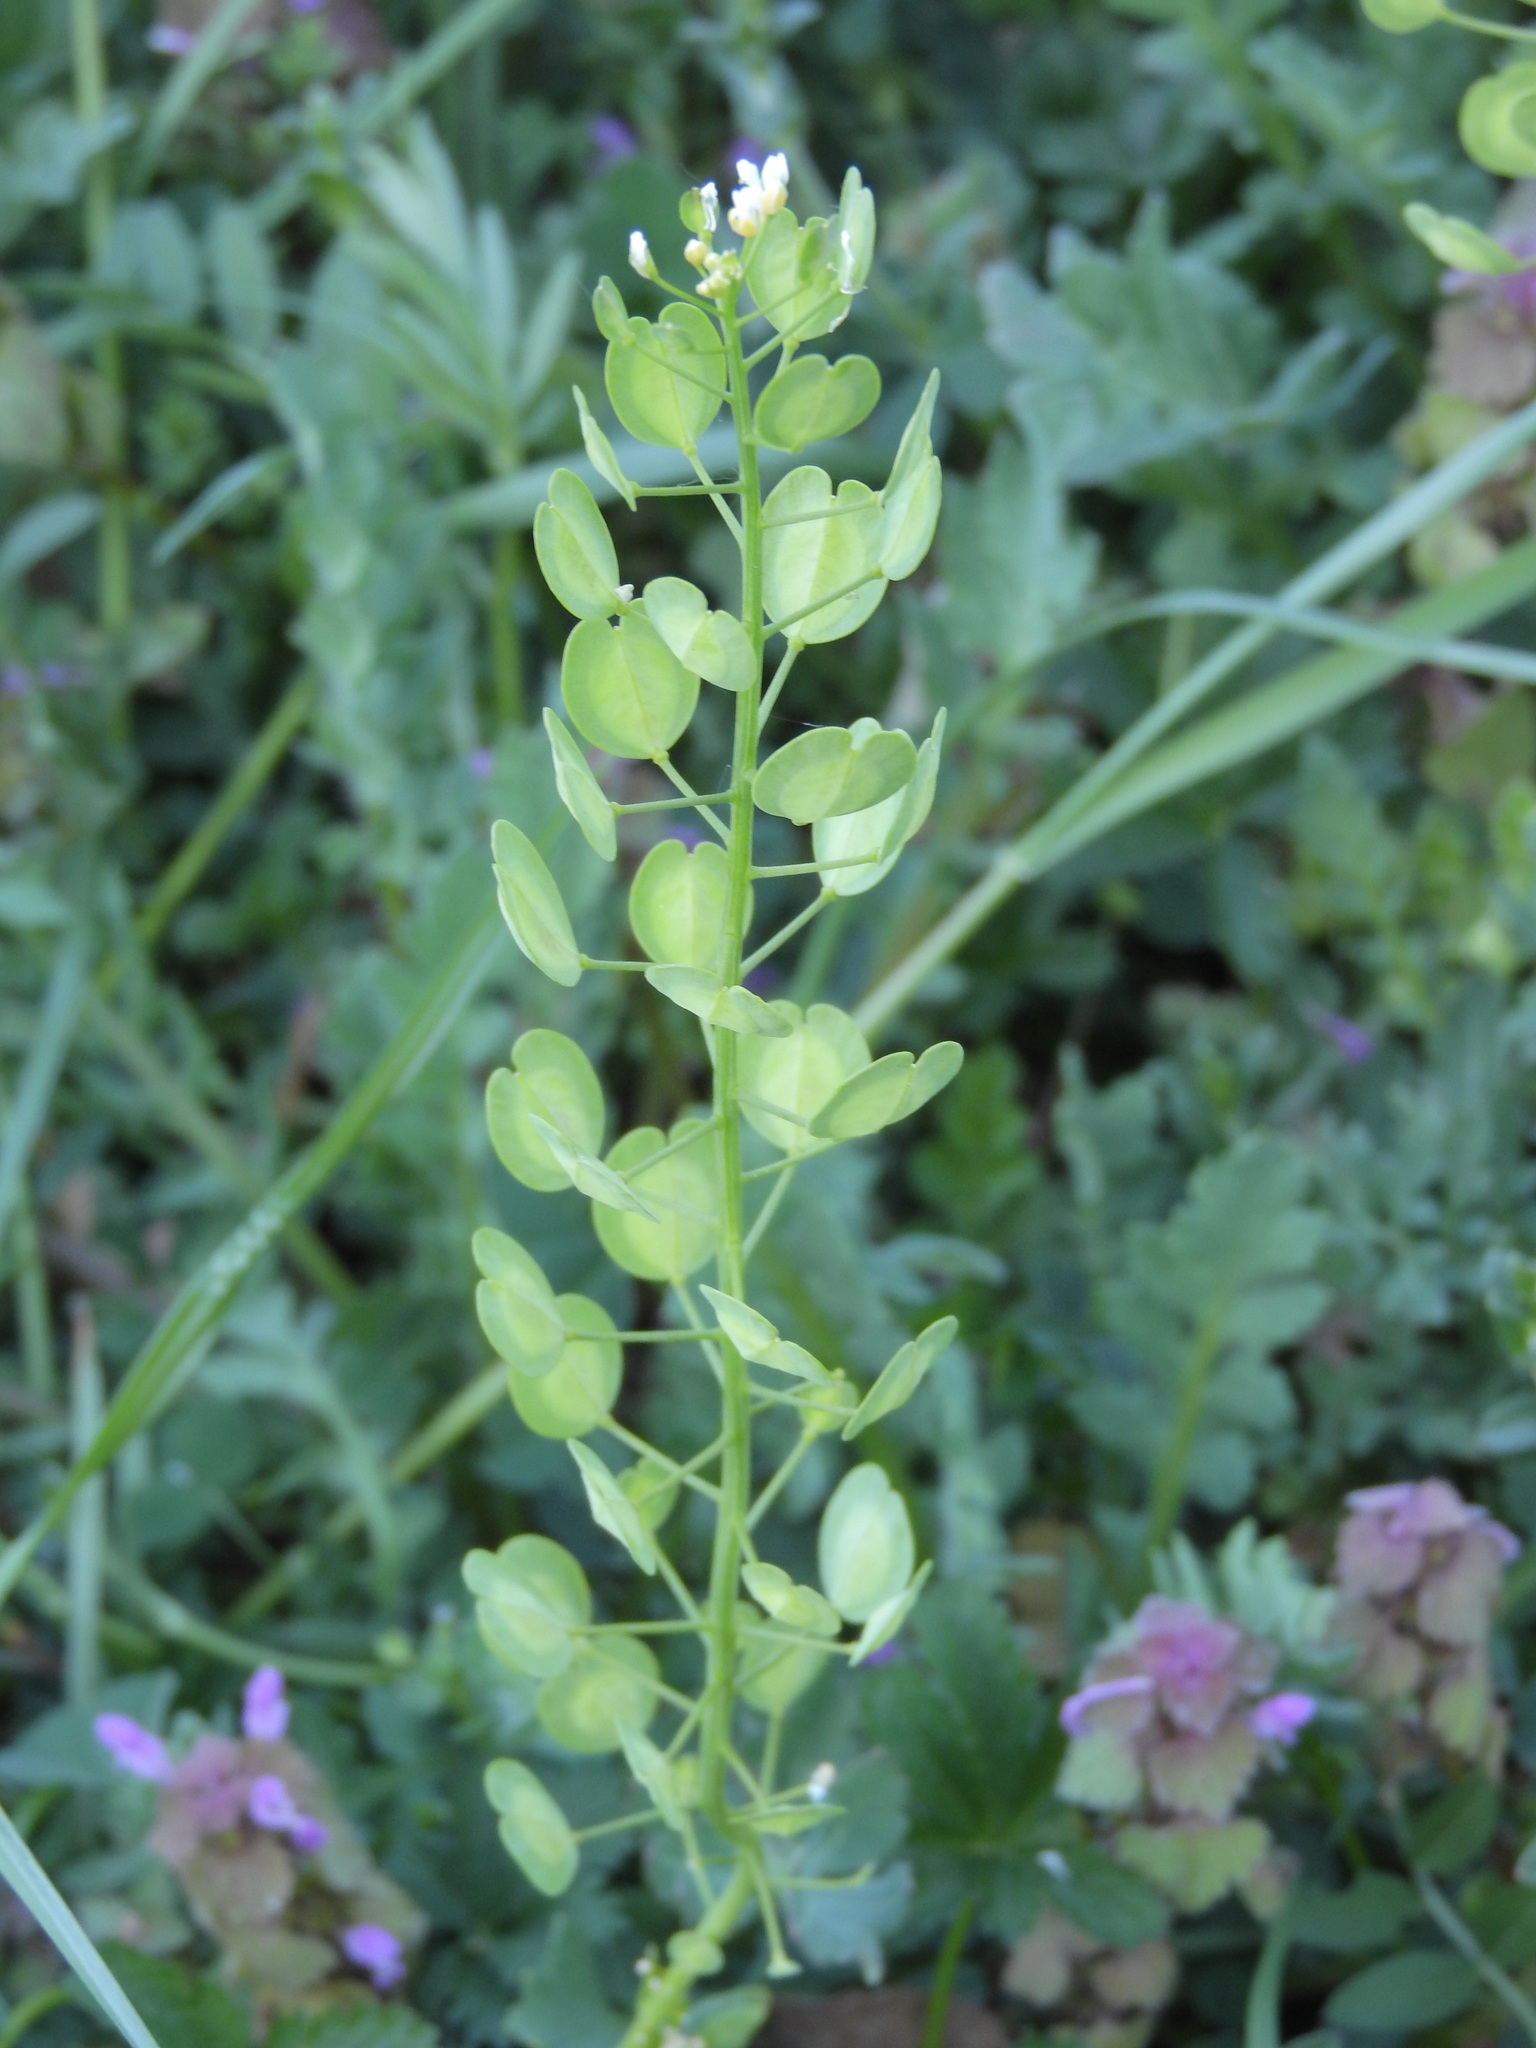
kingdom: Plantae
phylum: Tracheophyta
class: Magnoliopsida
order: Brassicales
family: Brassicaceae
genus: Thlaspi
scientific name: Thlaspi arvense
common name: Field pennycress
